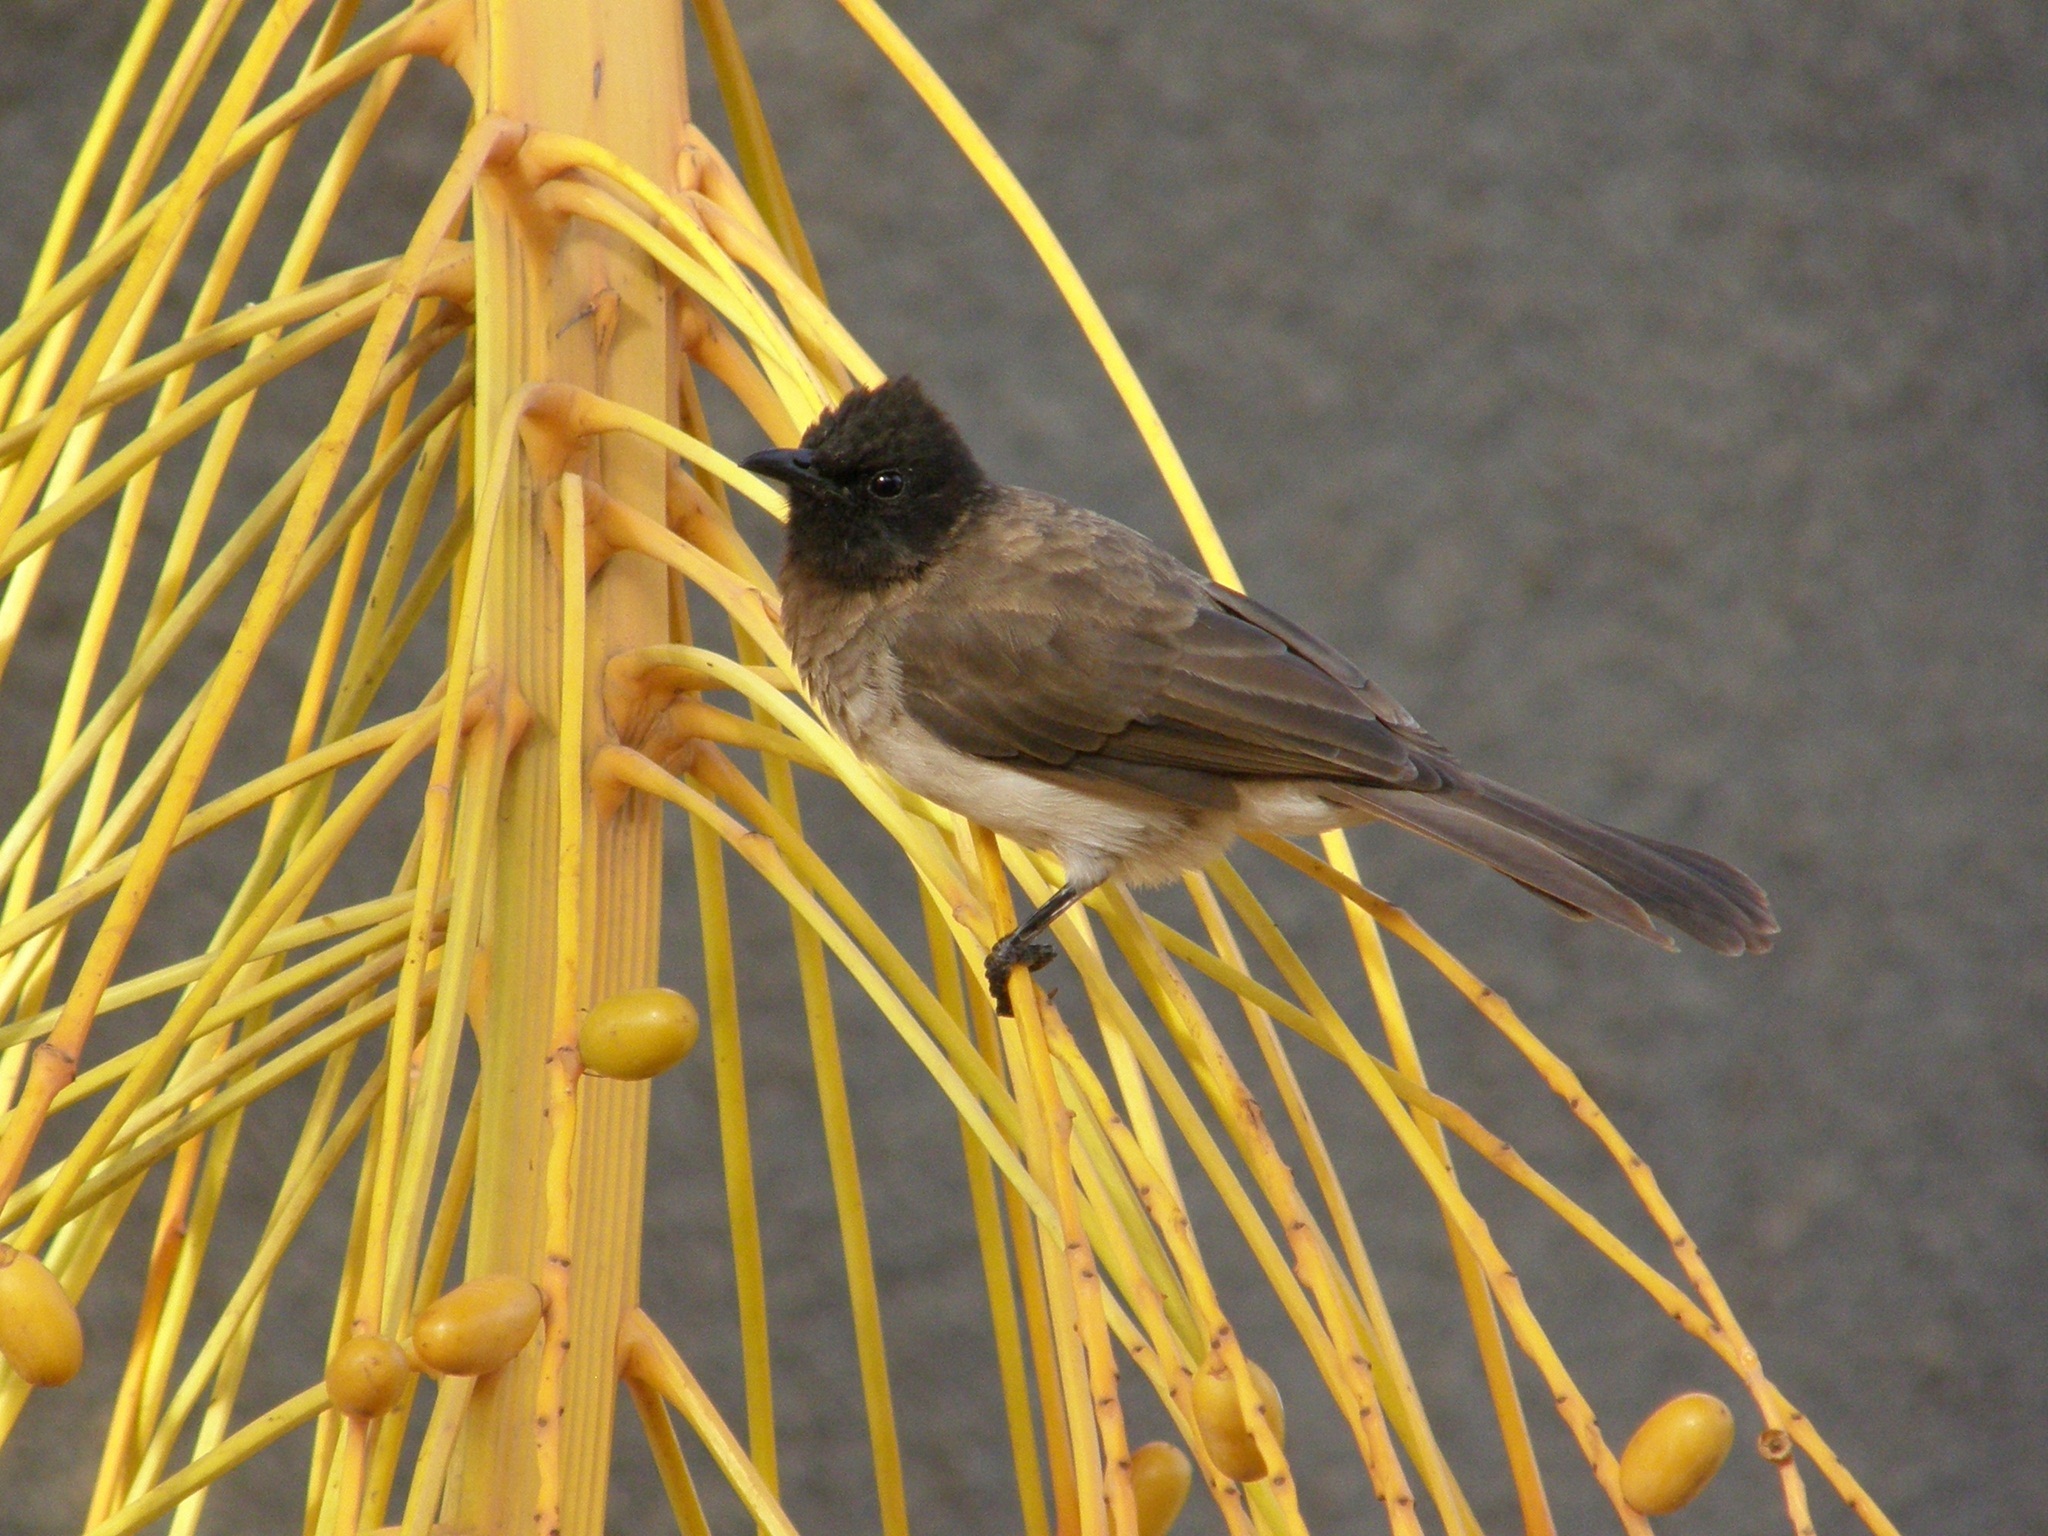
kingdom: Animalia
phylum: Chordata
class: Aves
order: Passeriformes
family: Pycnonotidae
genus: Pycnonotus
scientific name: Pycnonotus barbatus
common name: Common bulbul
